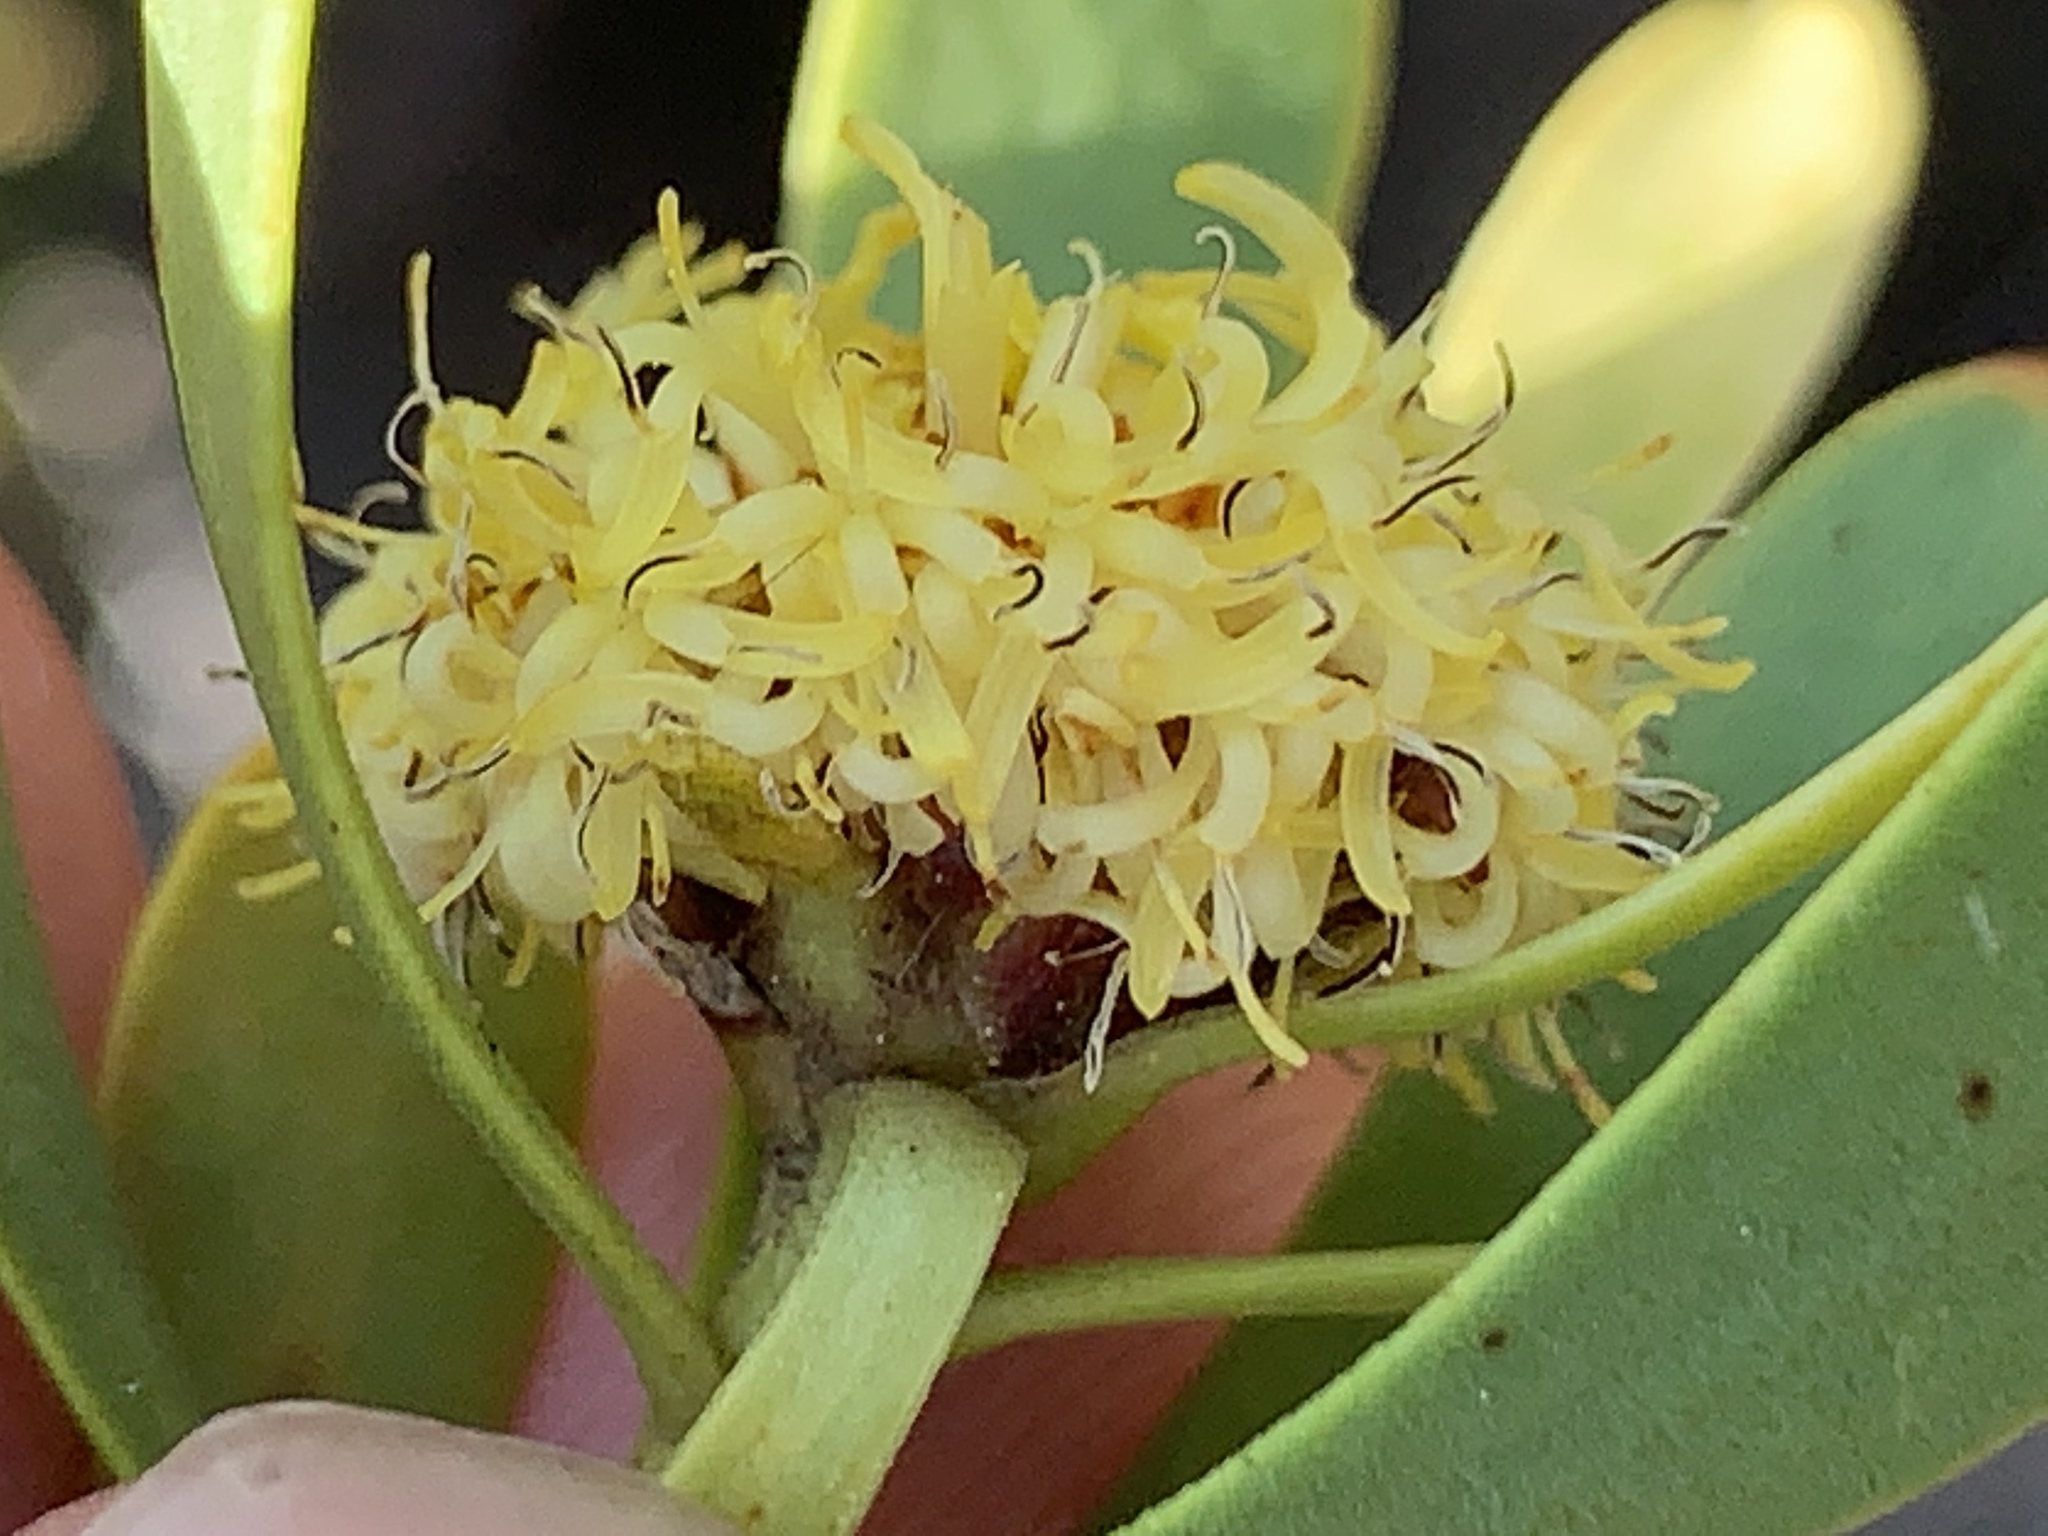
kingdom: Plantae
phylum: Tracheophyta
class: Magnoliopsida
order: Proteales
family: Proteaceae
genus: Leucadendron
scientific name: Leucadendron chamelaea
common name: Witsenberg conebush
